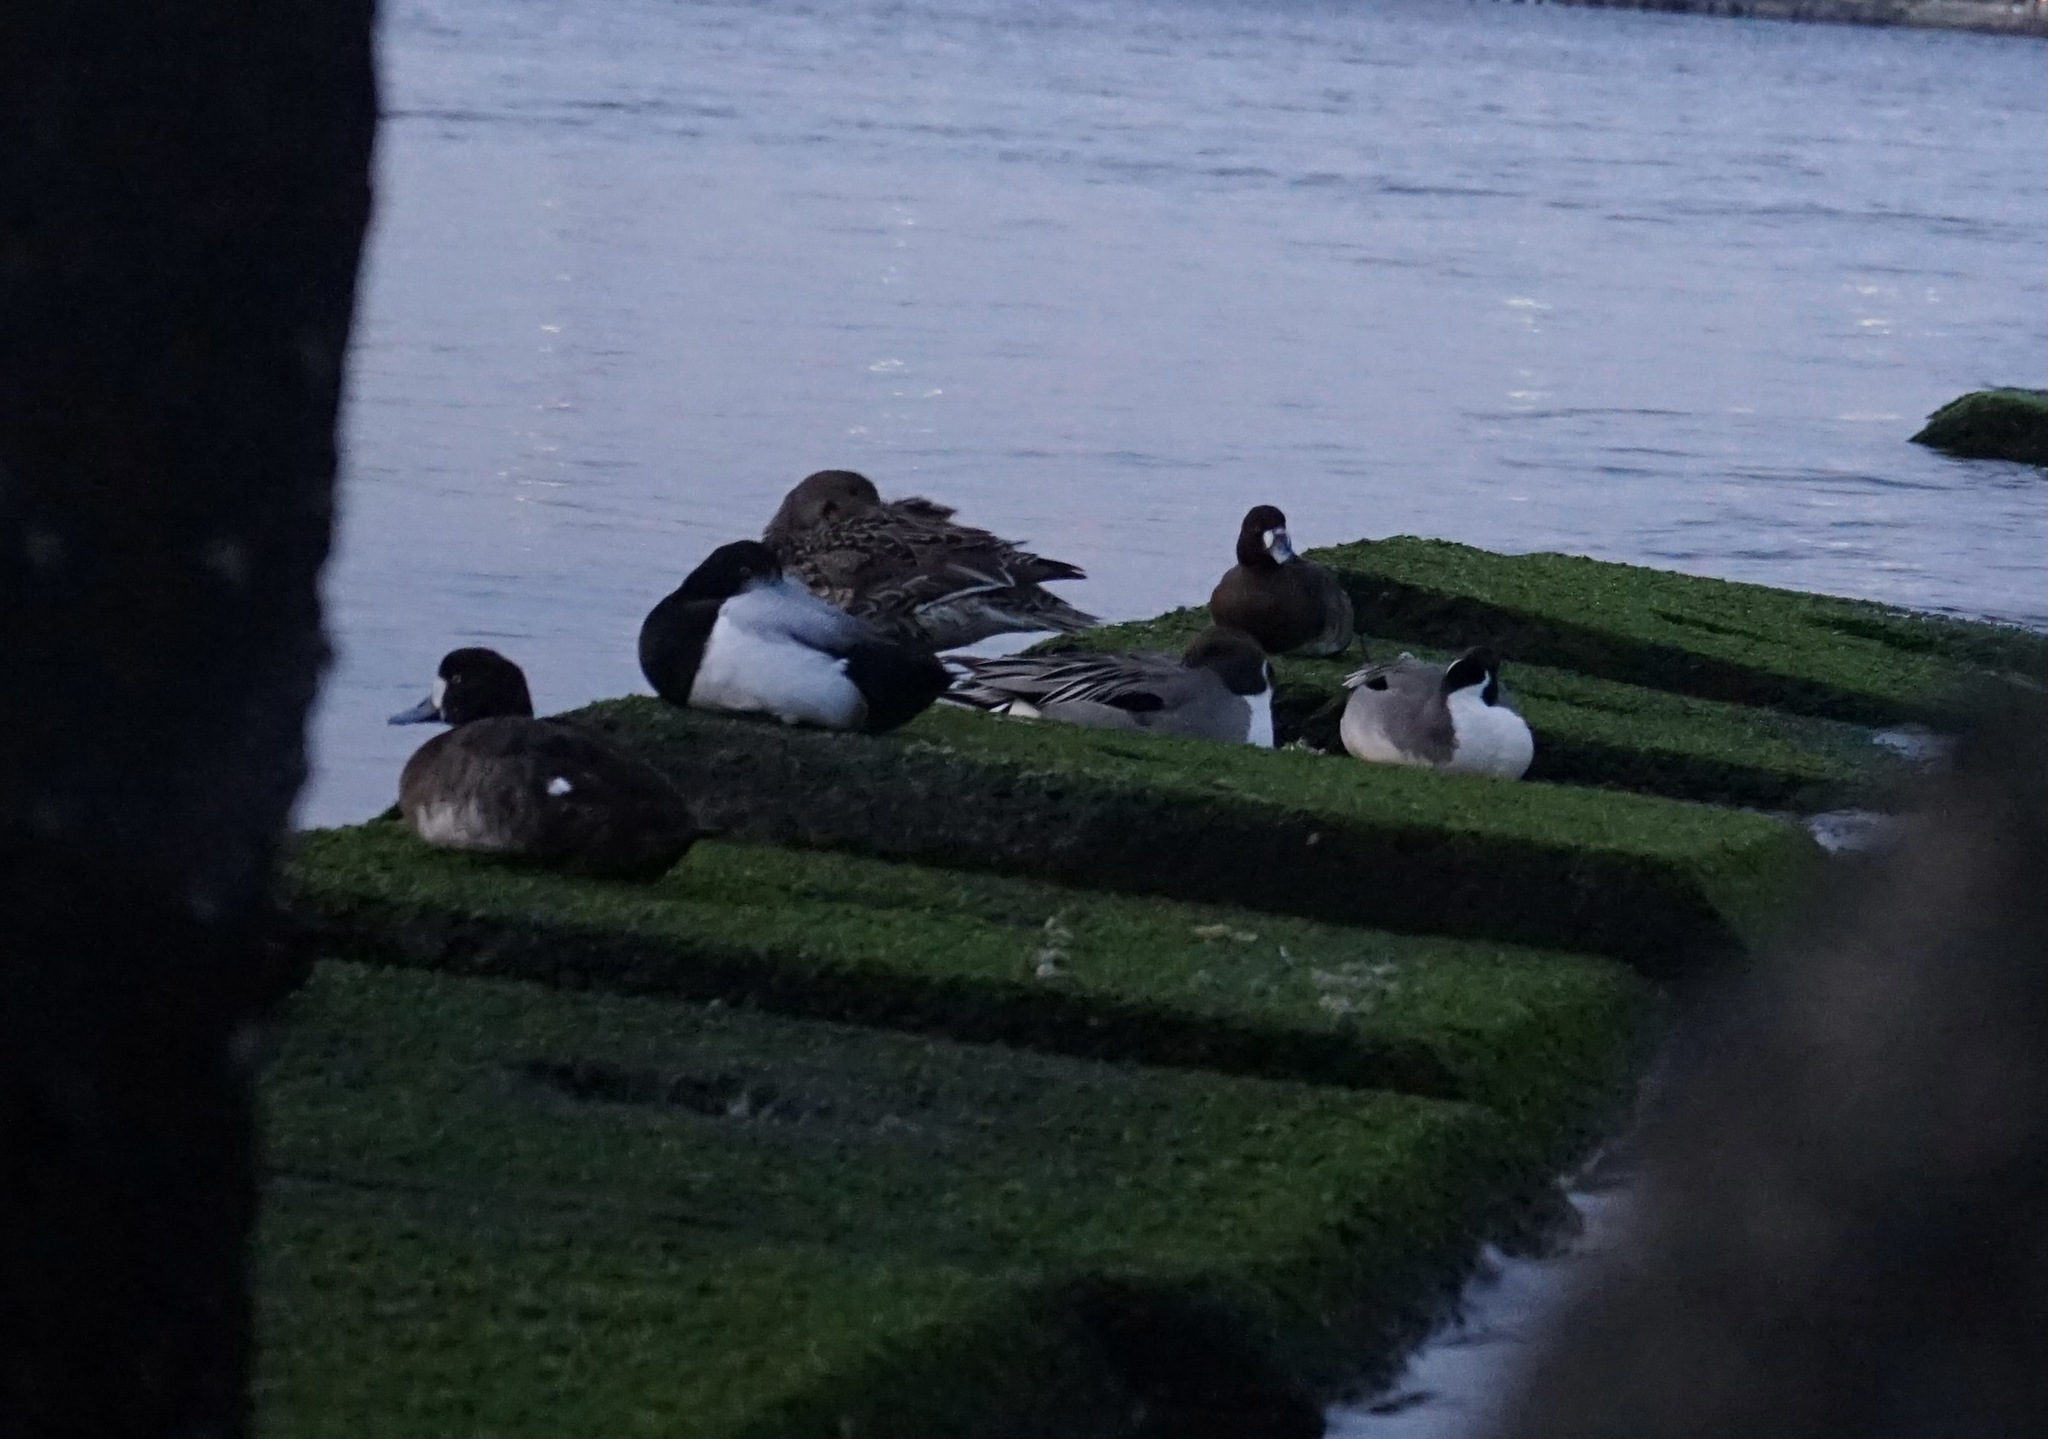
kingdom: Animalia
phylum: Chordata
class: Aves
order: Anseriformes
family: Anatidae
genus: Aythya
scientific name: Aythya marila
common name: Greater scaup
